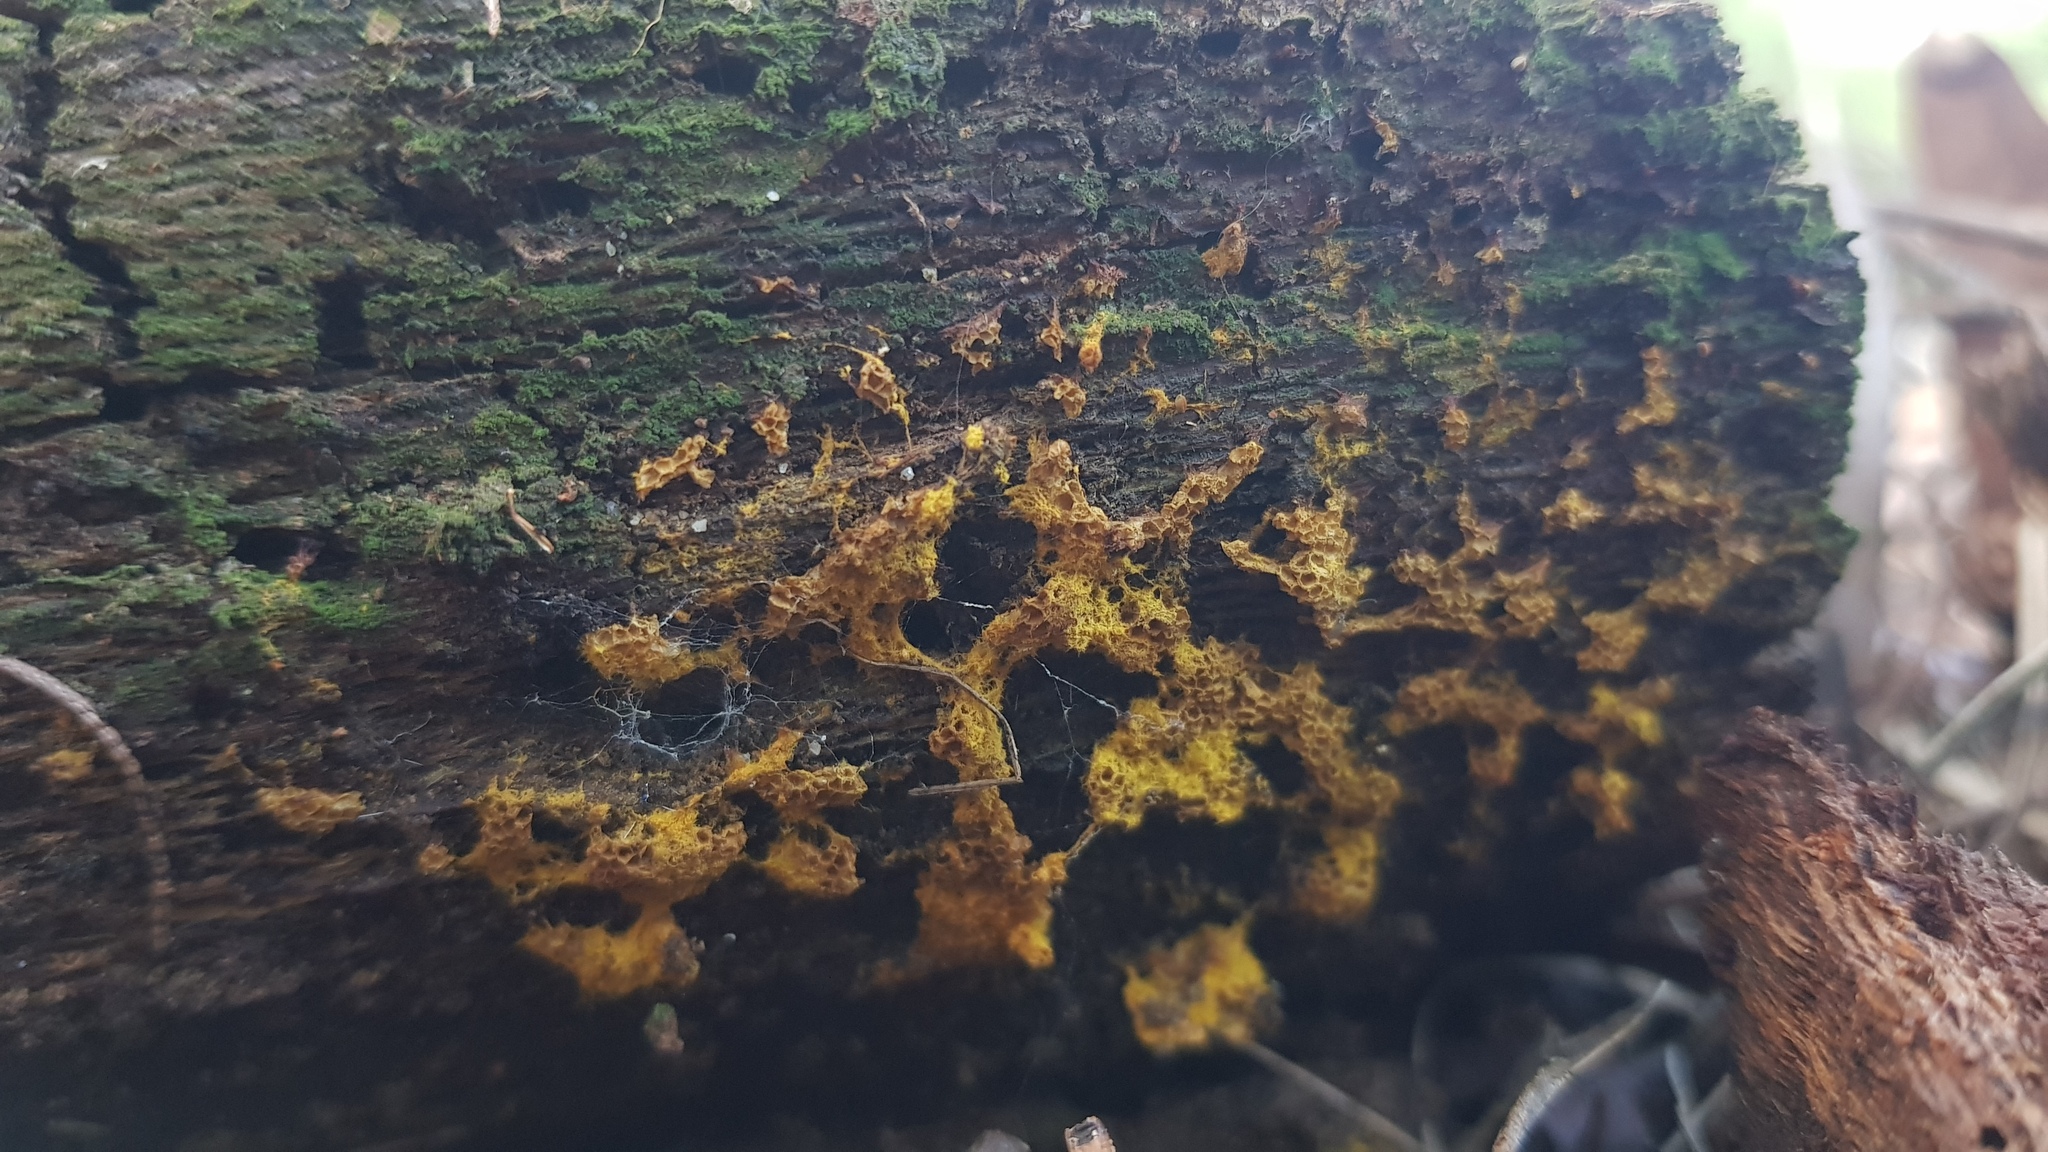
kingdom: Protozoa
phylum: Mycetozoa
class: Myxomycetes
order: Trichiales
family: Trichiaceae
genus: Oligonema
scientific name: Oligonema verrucosum
